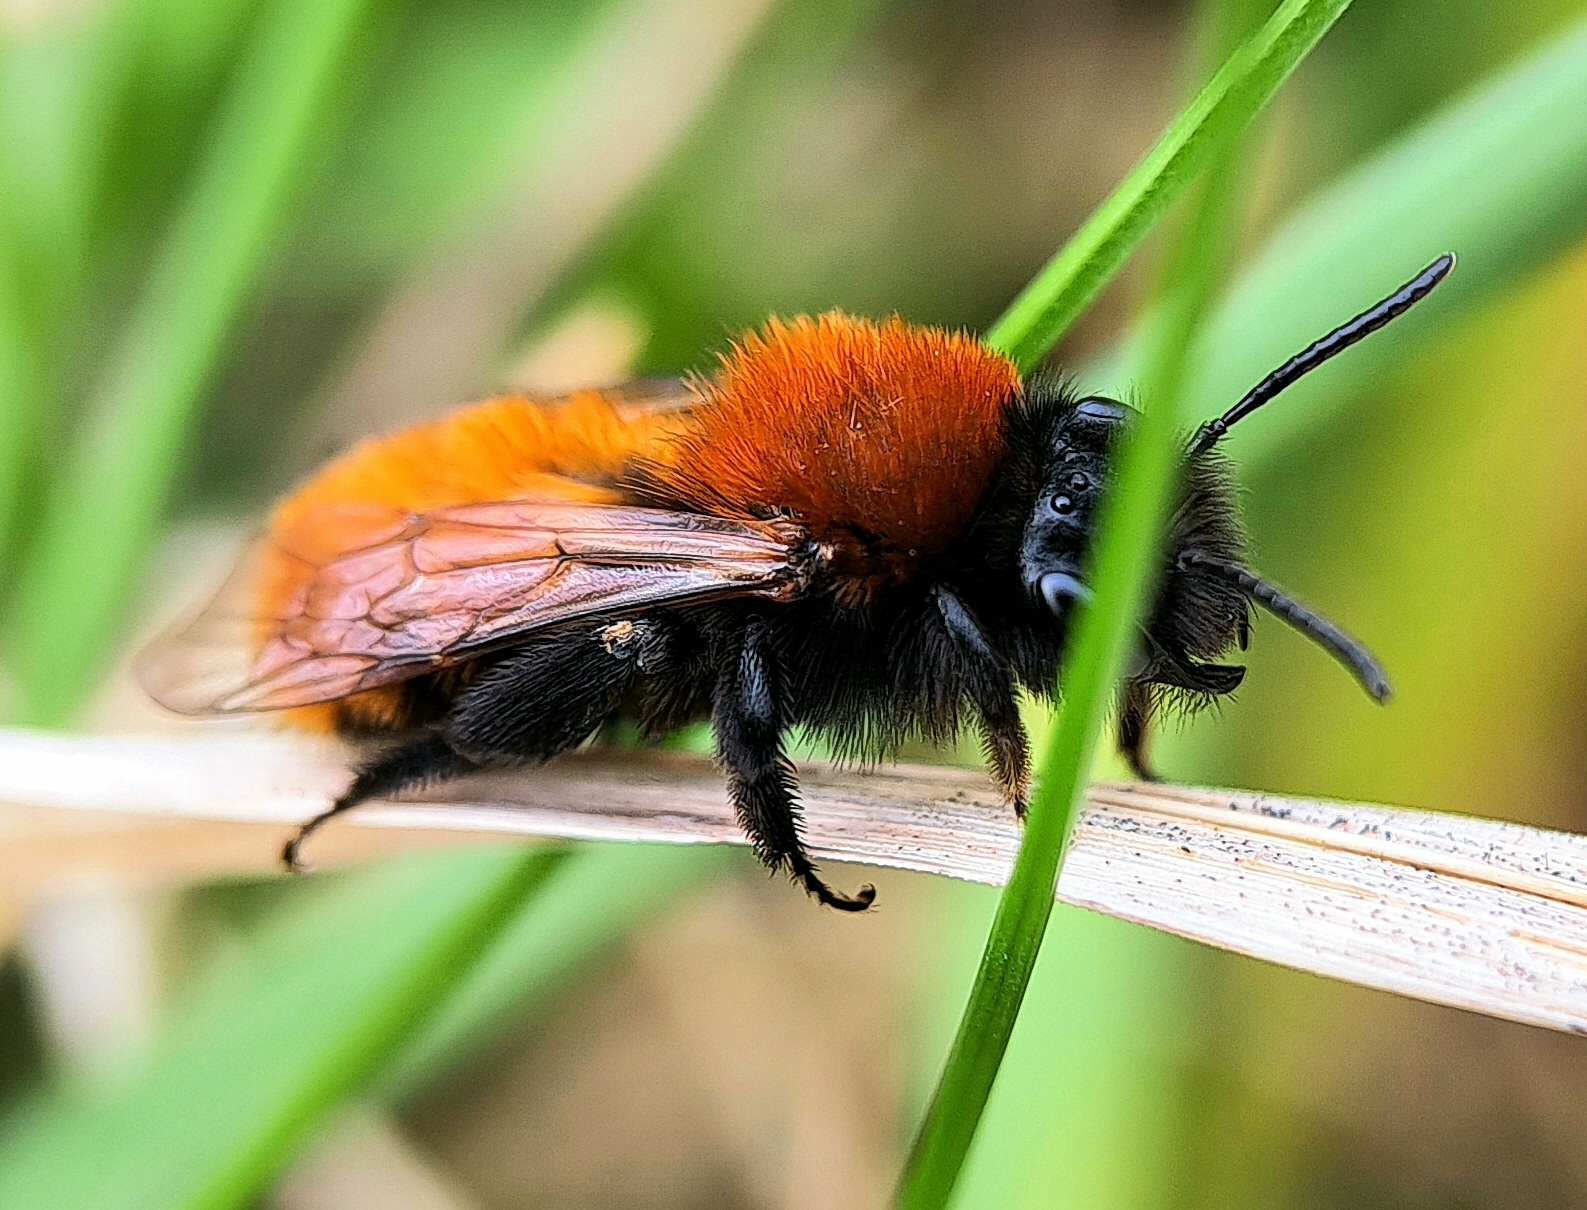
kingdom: Animalia
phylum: Arthropoda
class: Insecta
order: Hymenoptera
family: Andrenidae
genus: Andrena
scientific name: Andrena fulva
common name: Tawny mining bee
